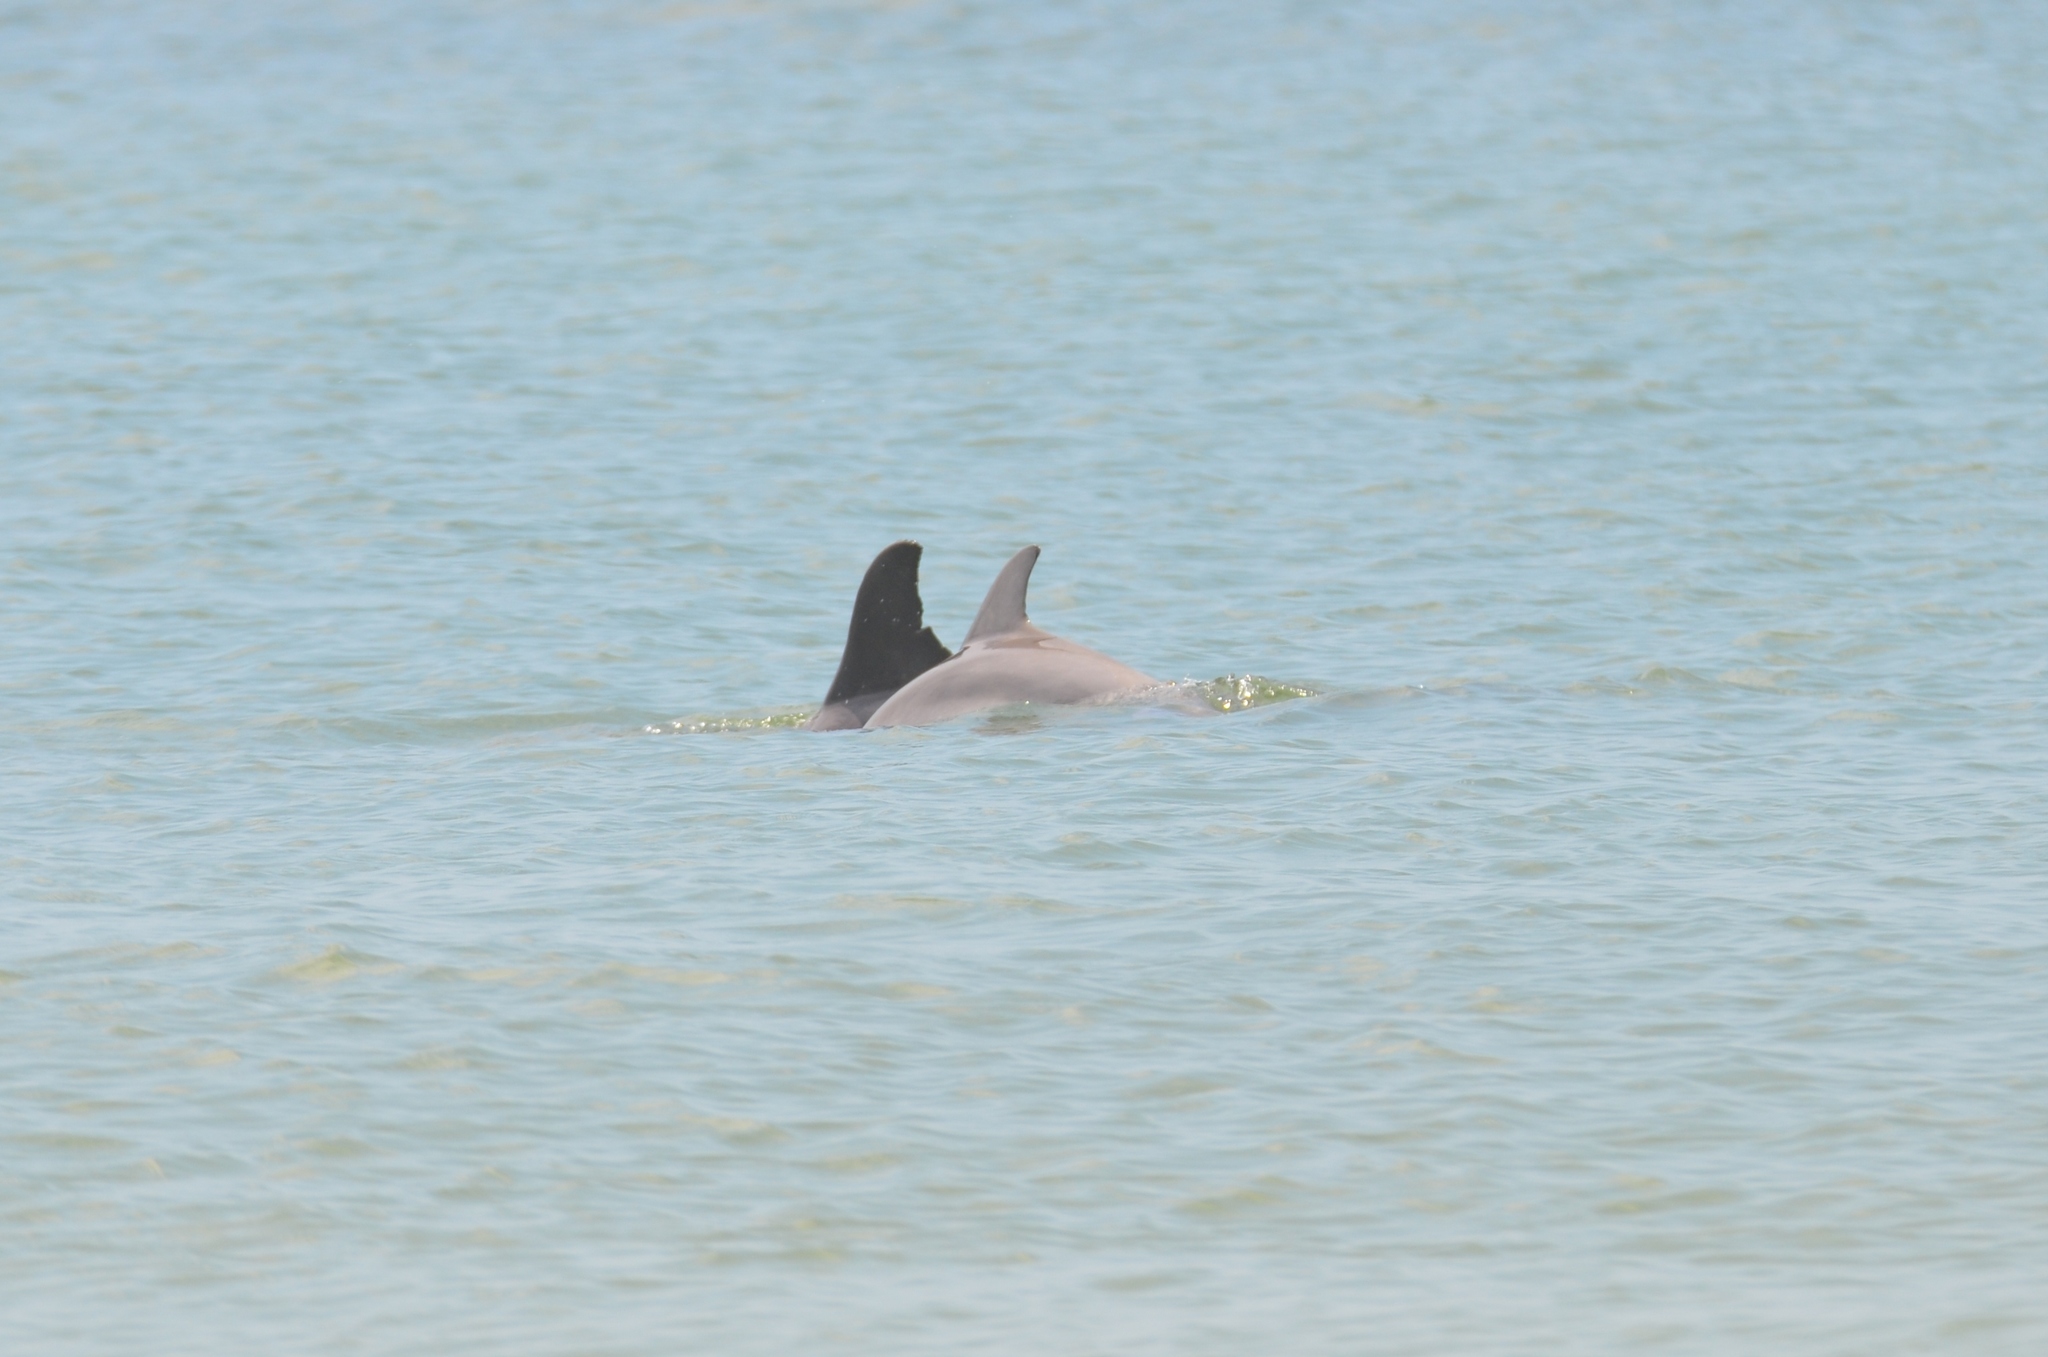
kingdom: Animalia
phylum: Chordata
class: Mammalia
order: Cetacea
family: Delphinidae
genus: Tursiops
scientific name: Tursiops truncatus
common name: Bottlenose dolphin
